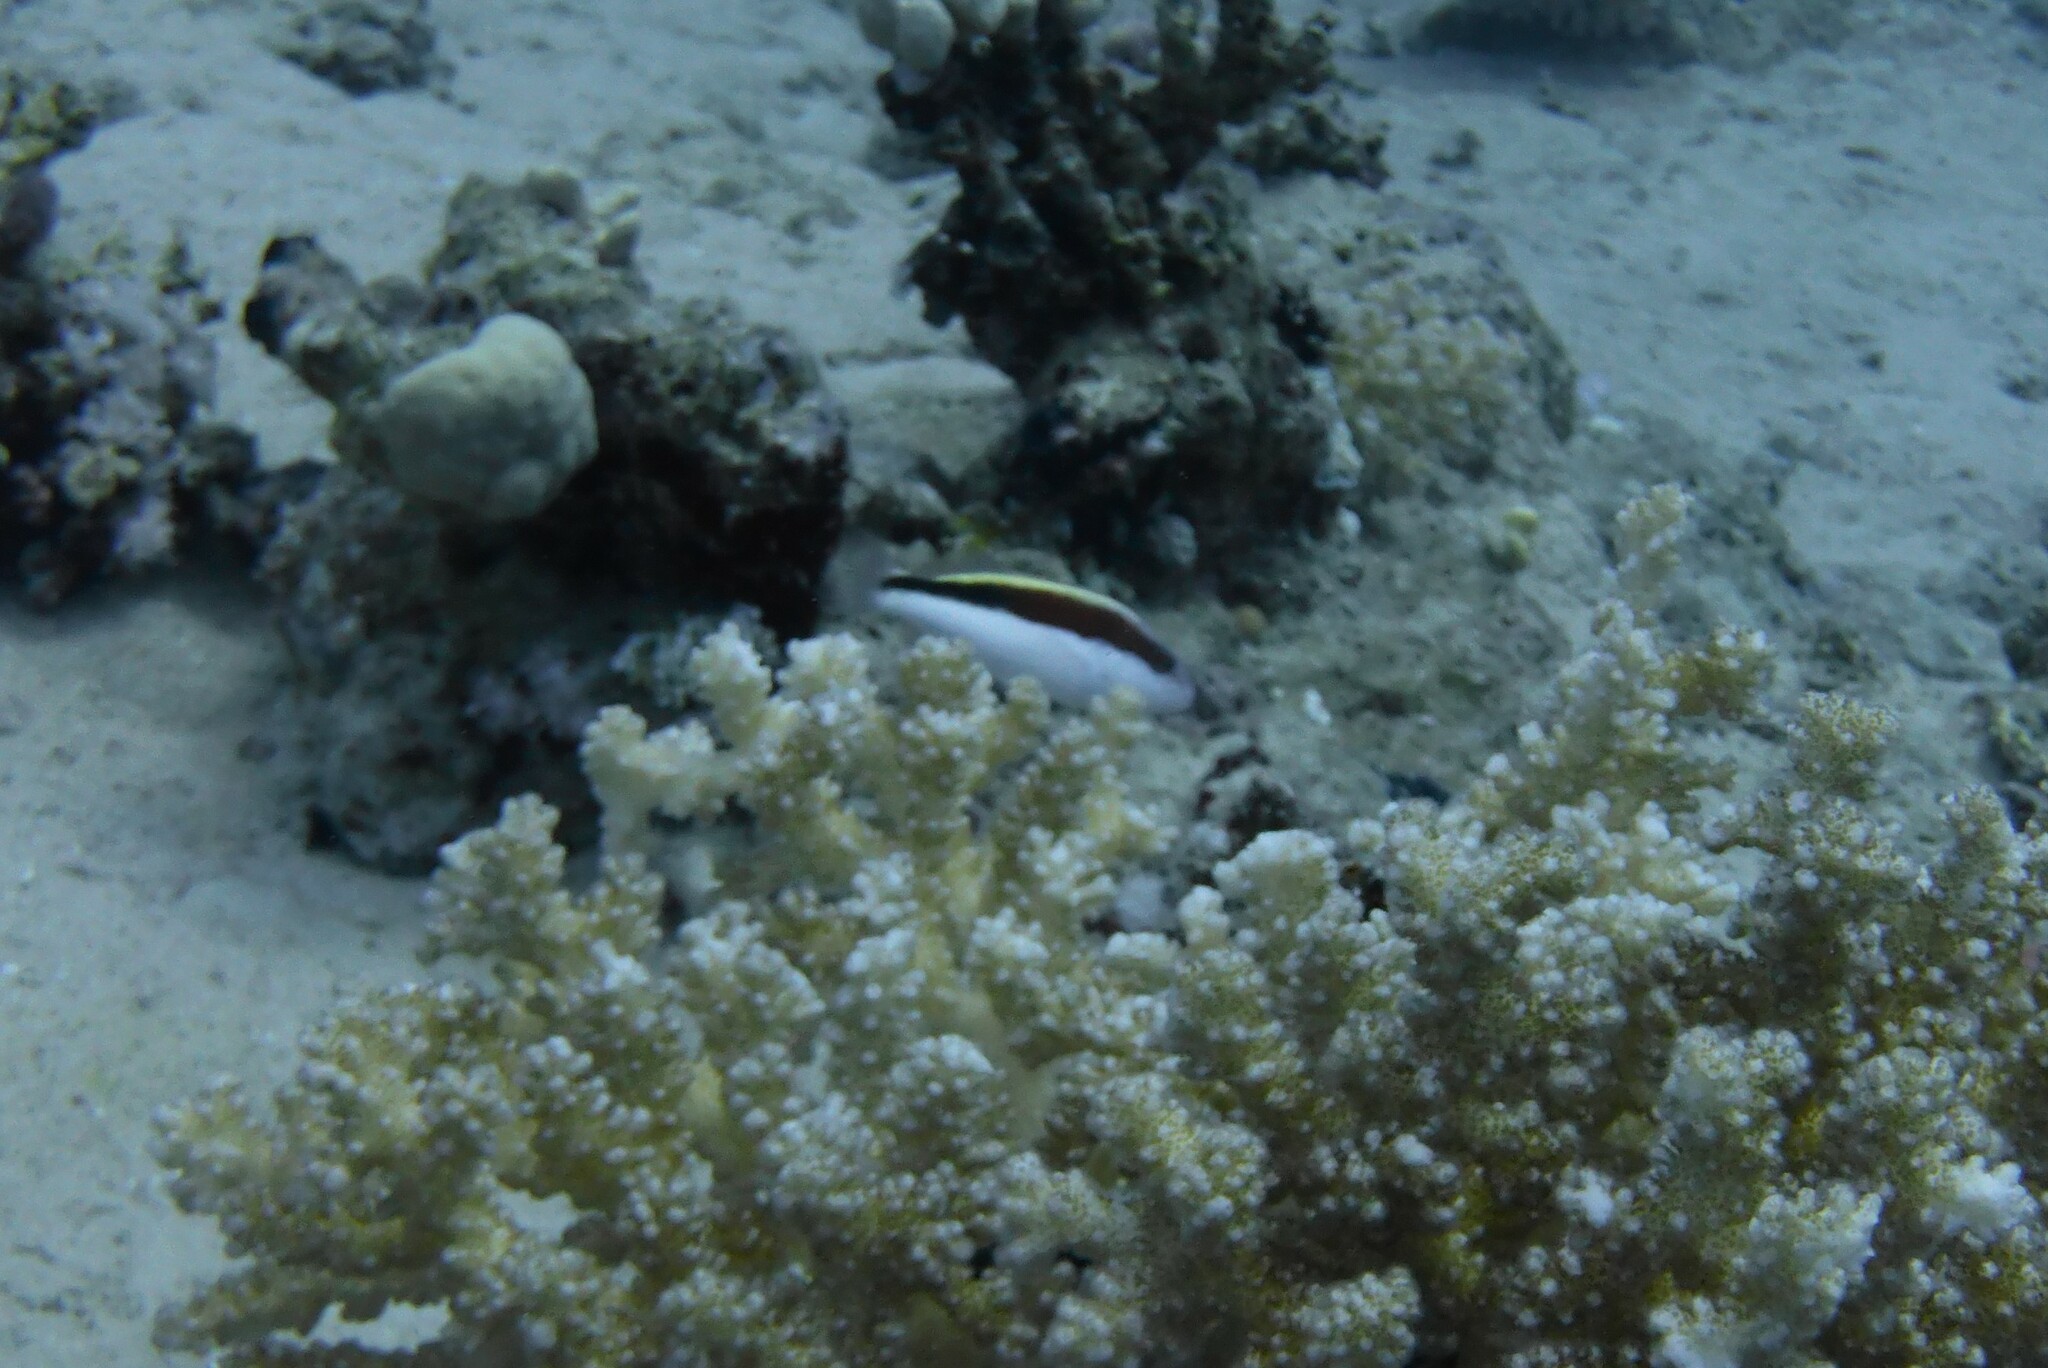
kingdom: Animalia
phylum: Chordata
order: Perciformes
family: Cirrhitidae
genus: Paracirrhites
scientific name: Paracirrhites forsteri
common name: Freckled hawkfish
